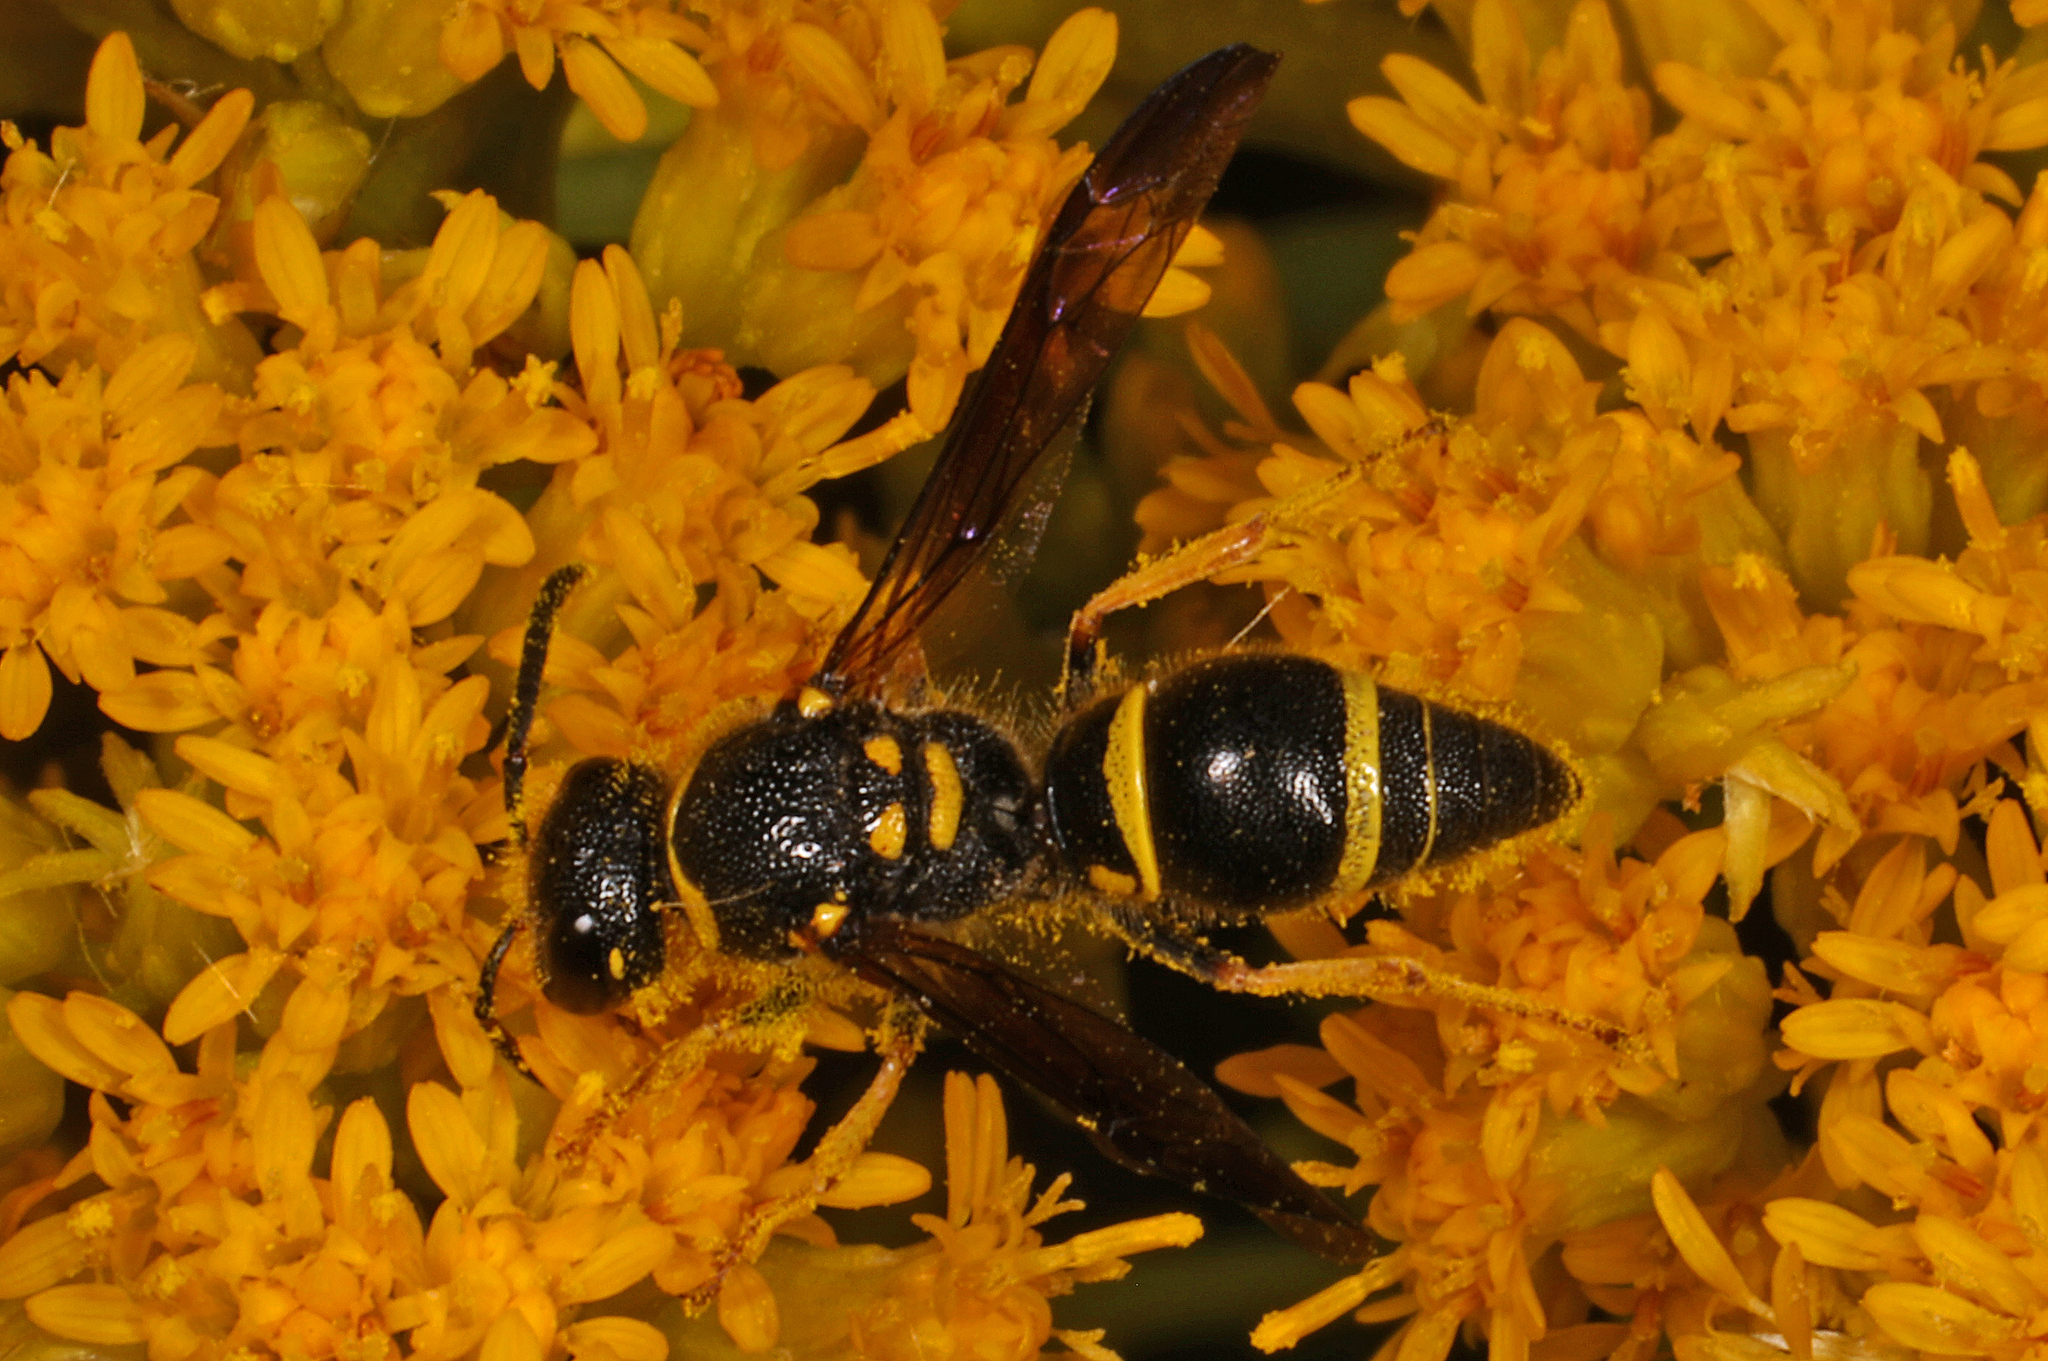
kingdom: Animalia
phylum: Arthropoda
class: Insecta
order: Hymenoptera
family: Vespidae
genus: Ancistrocerus
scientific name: Ancistrocerus campestris
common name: Smiling mason wasp
